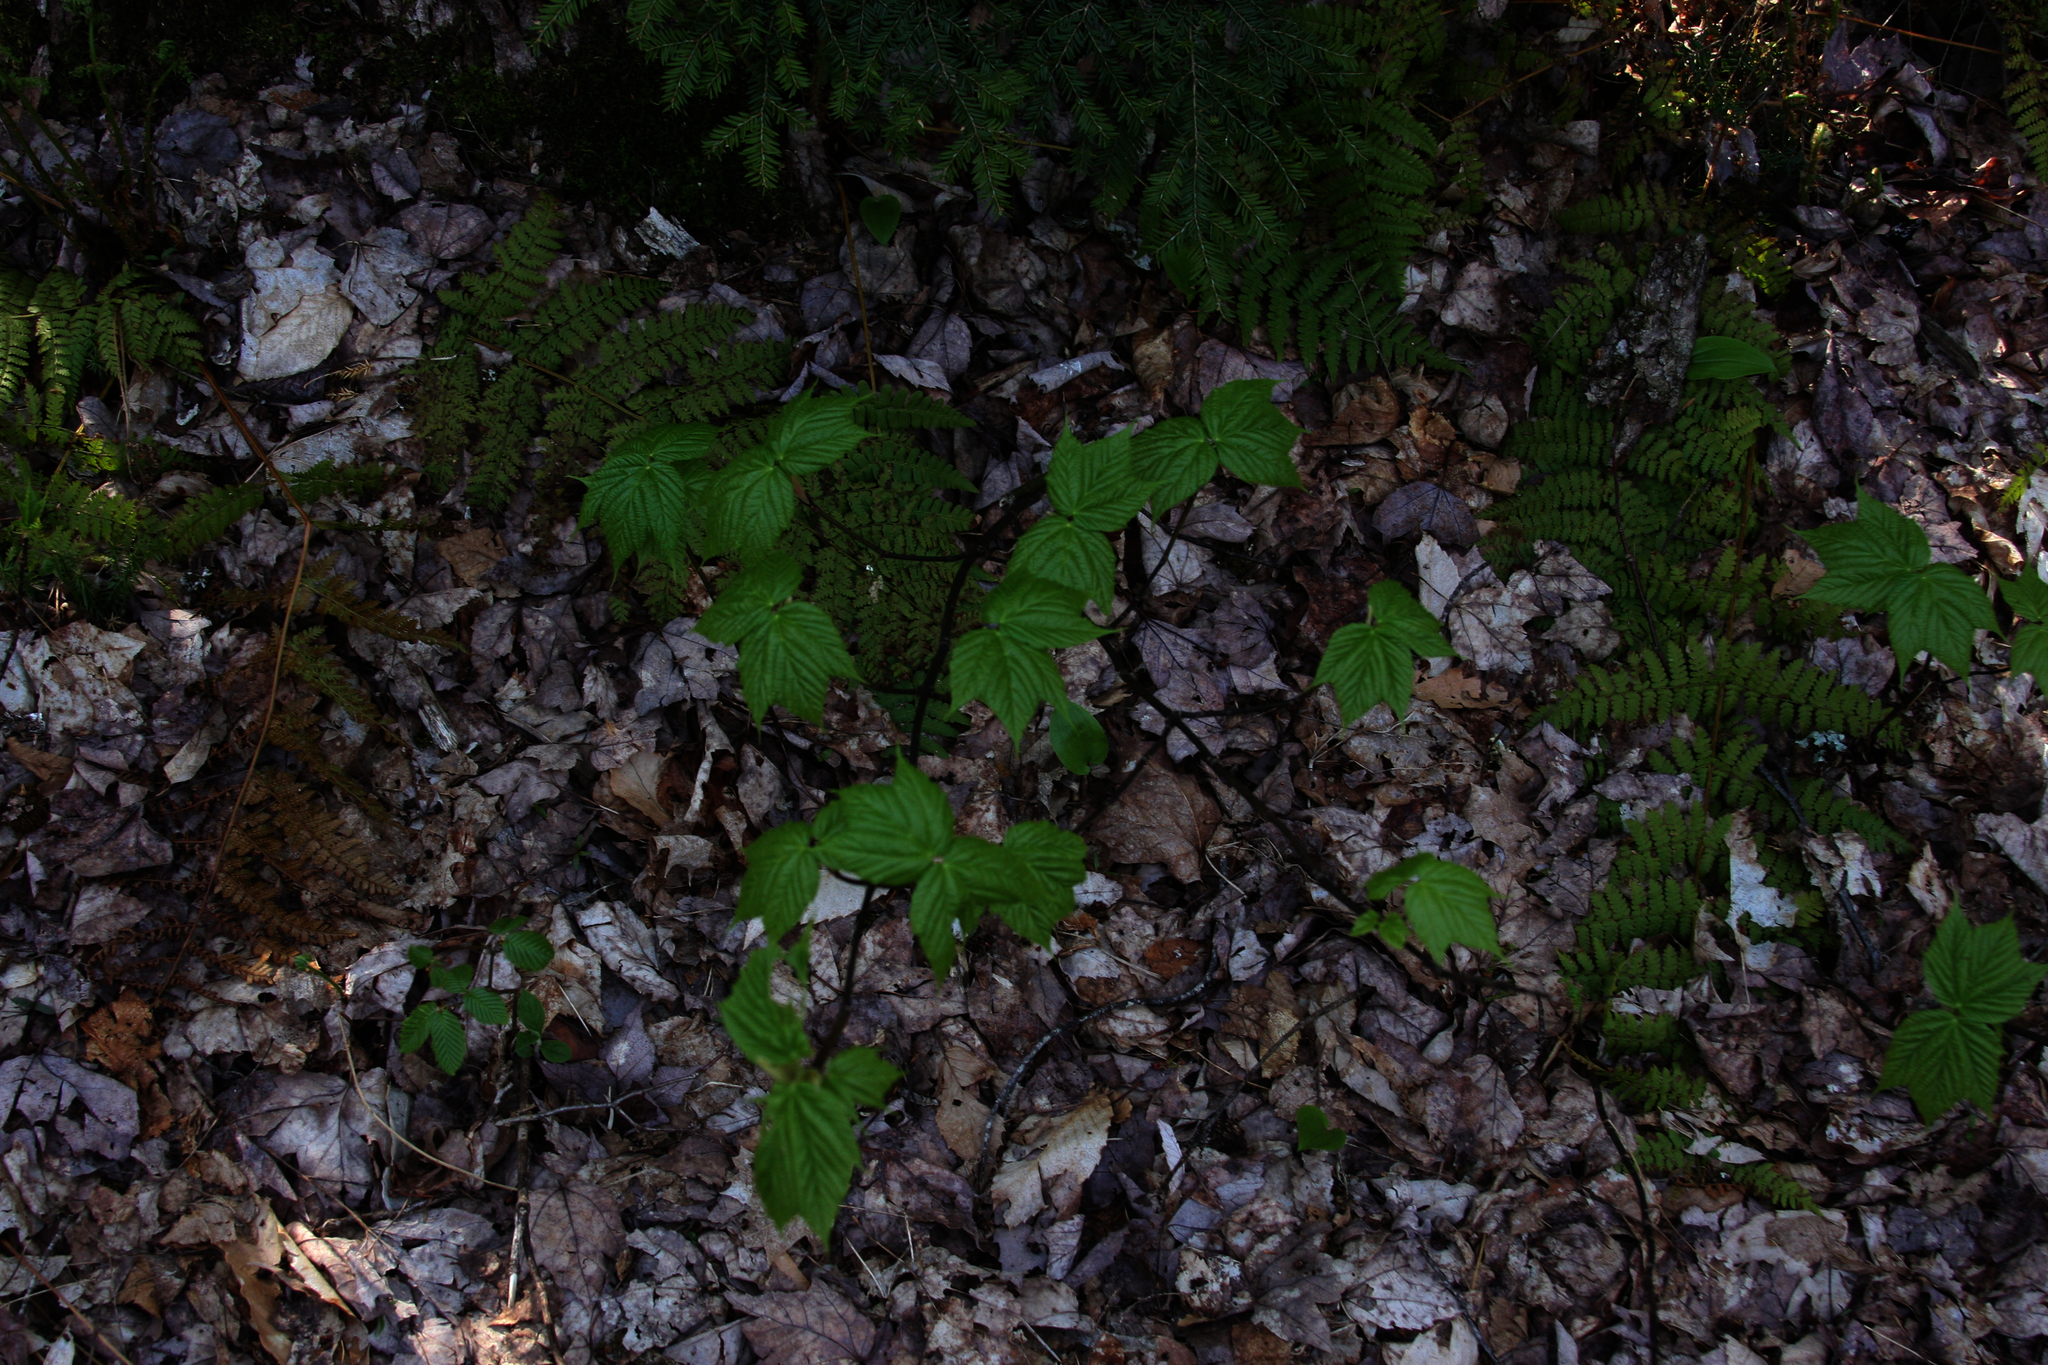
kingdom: Plantae
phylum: Tracheophyta
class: Magnoliopsida
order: Sapindales
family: Sapindaceae
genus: Acer
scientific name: Acer pensylvanicum
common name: Moosewood
